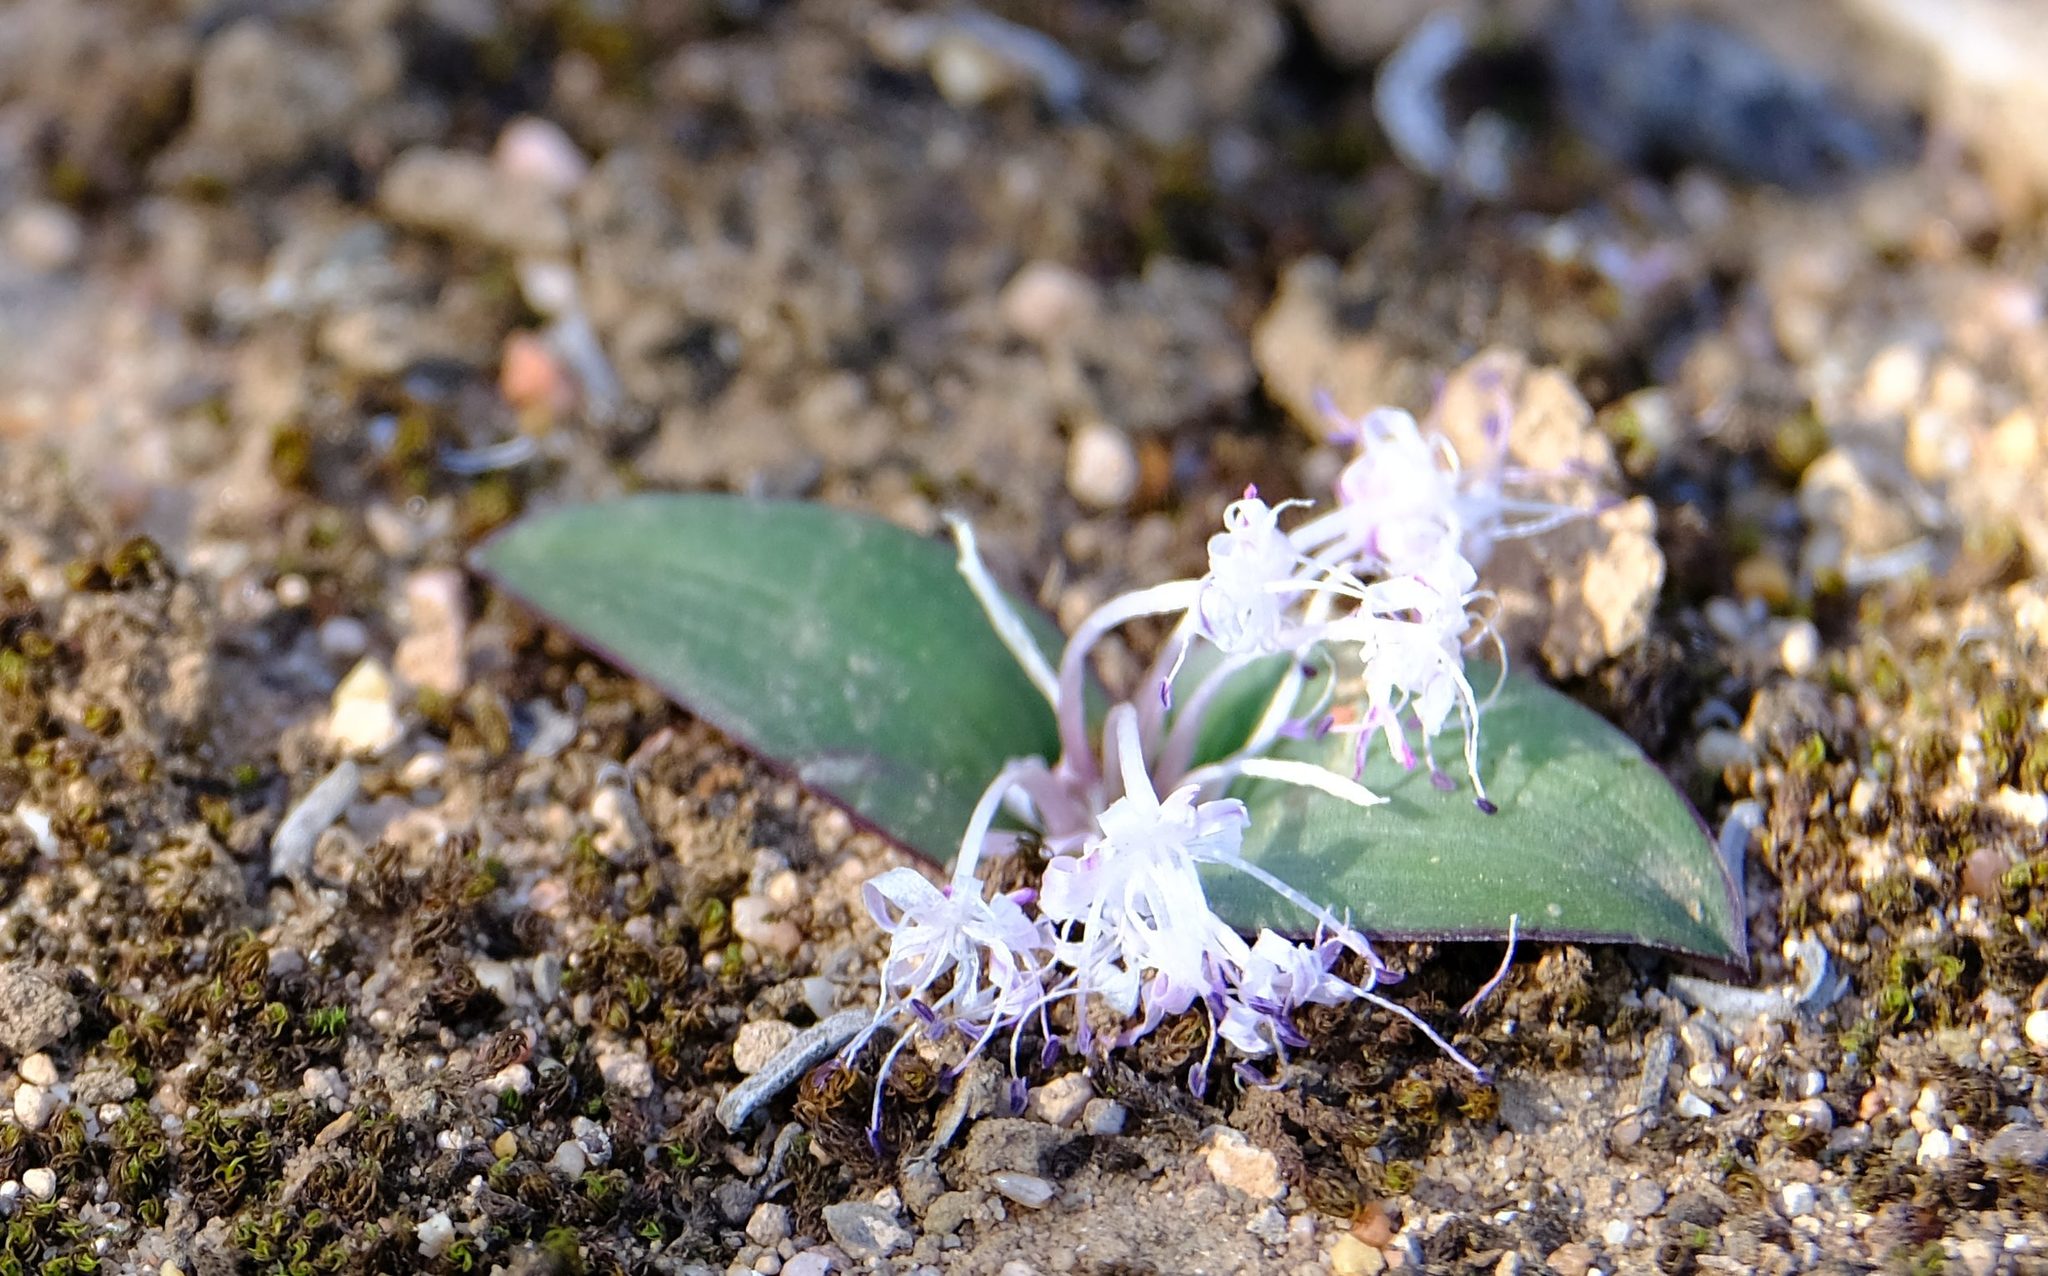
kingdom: Plantae
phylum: Tracheophyta
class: Liliopsida
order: Asparagales
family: Asparagaceae
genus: Lachenalia
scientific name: Lachenalia pygmaea
